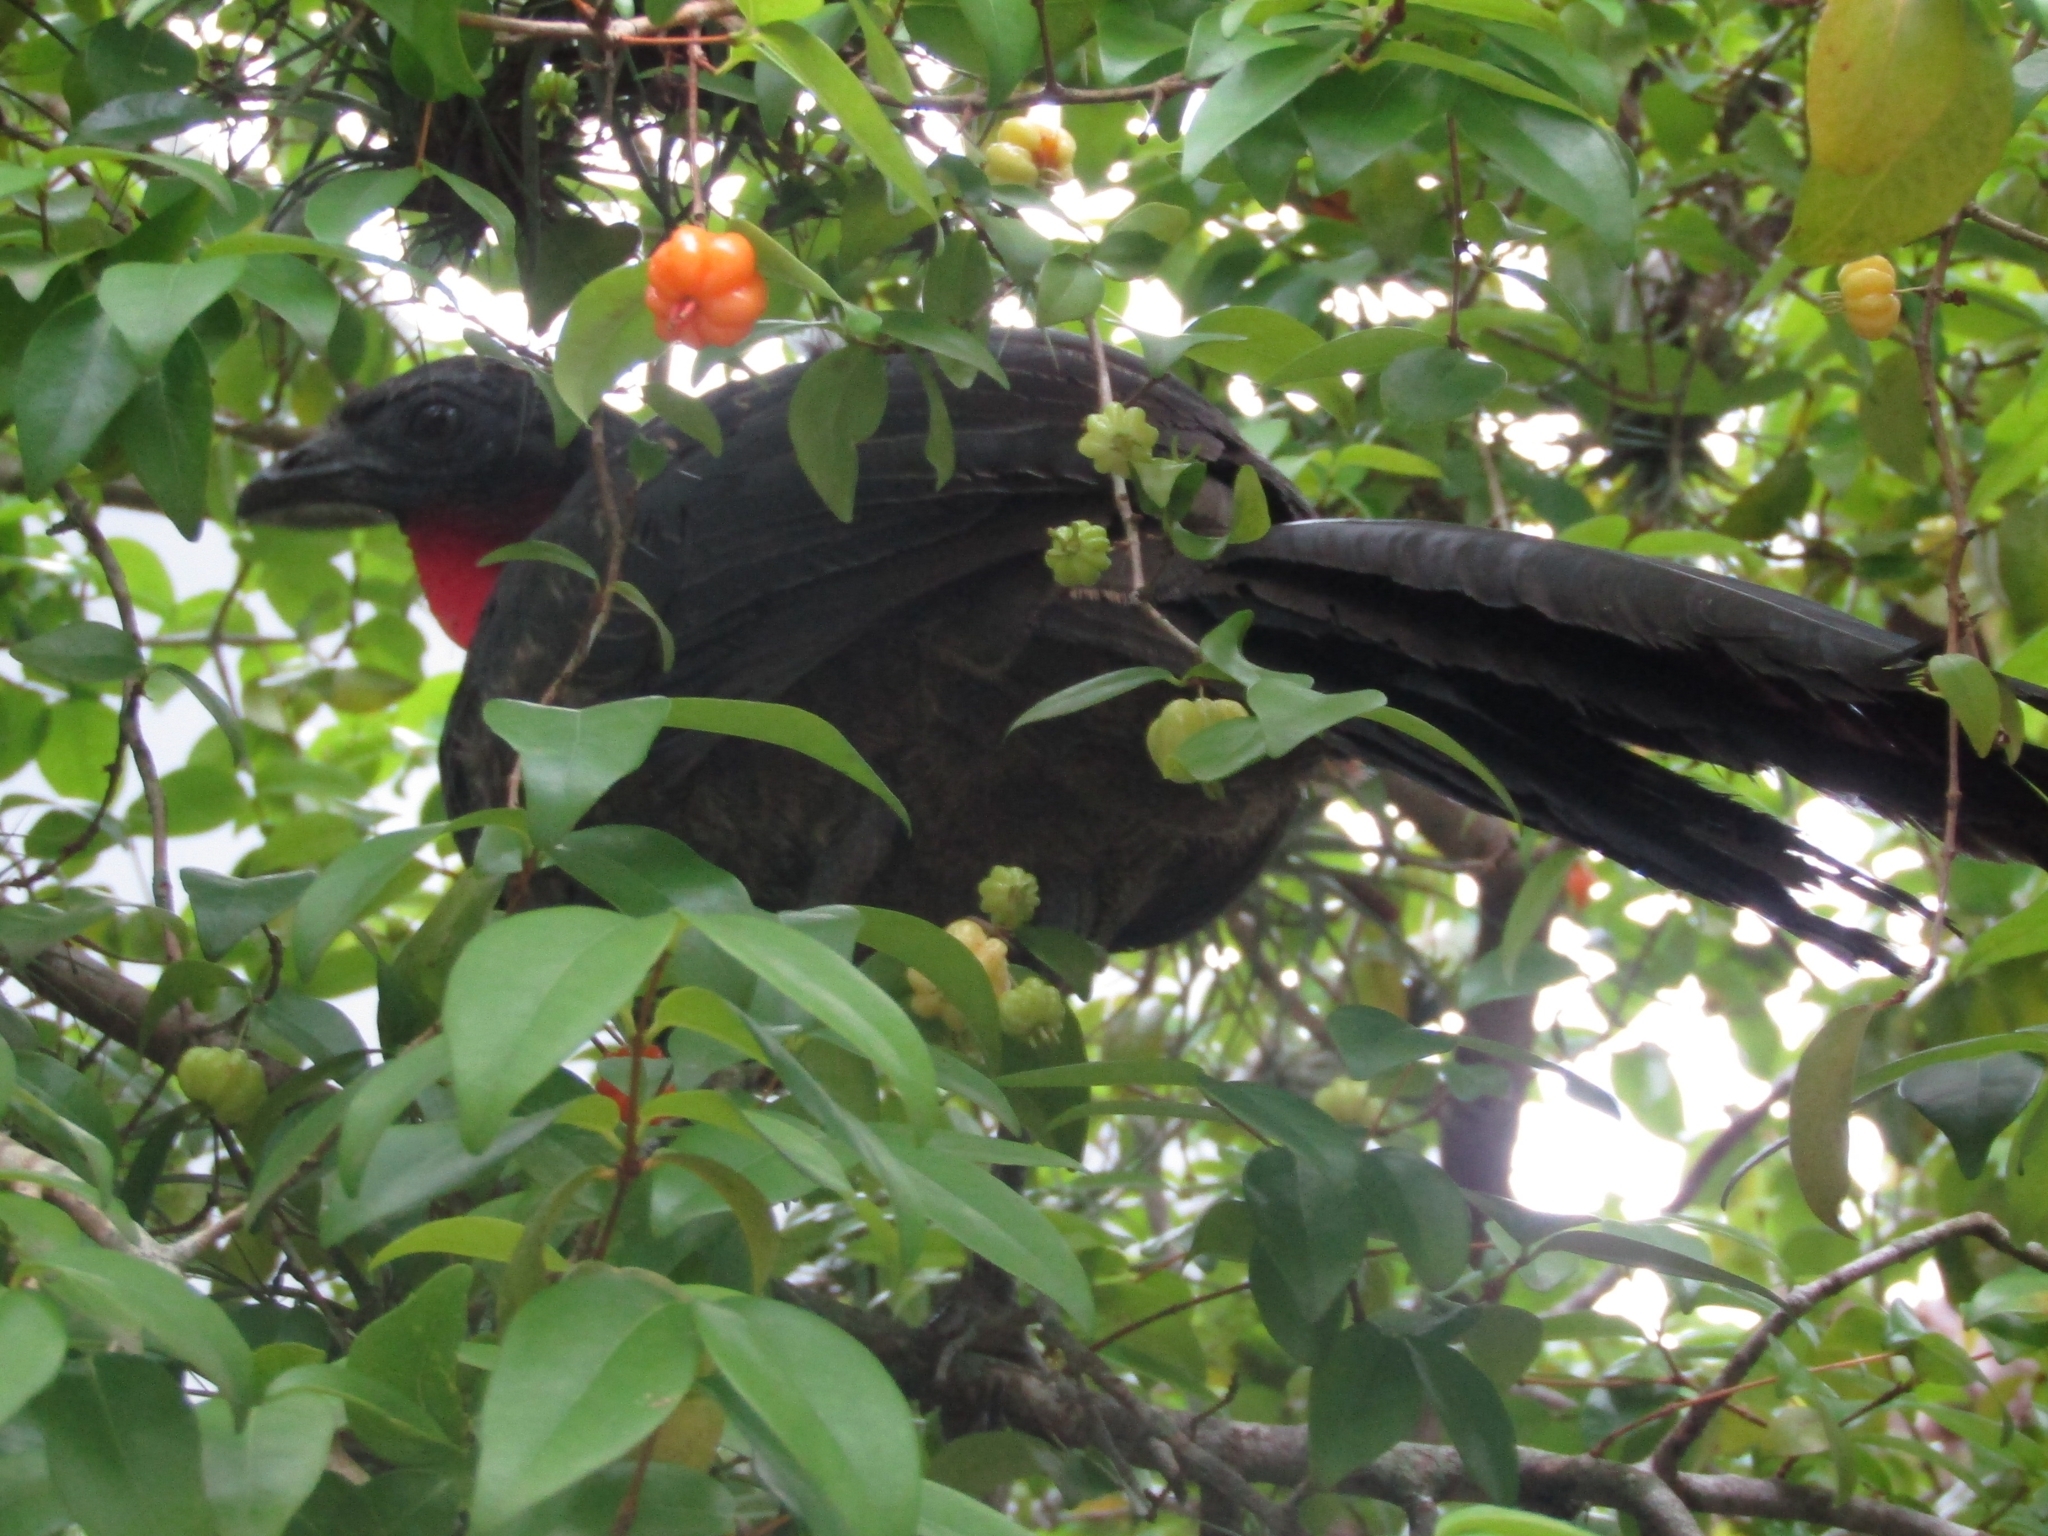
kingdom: Animalia
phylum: Chordata
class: Aves
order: Galliformes
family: Cracidae
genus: Penelope
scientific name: Penelope superciliaris
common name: Rusty-margined guan
